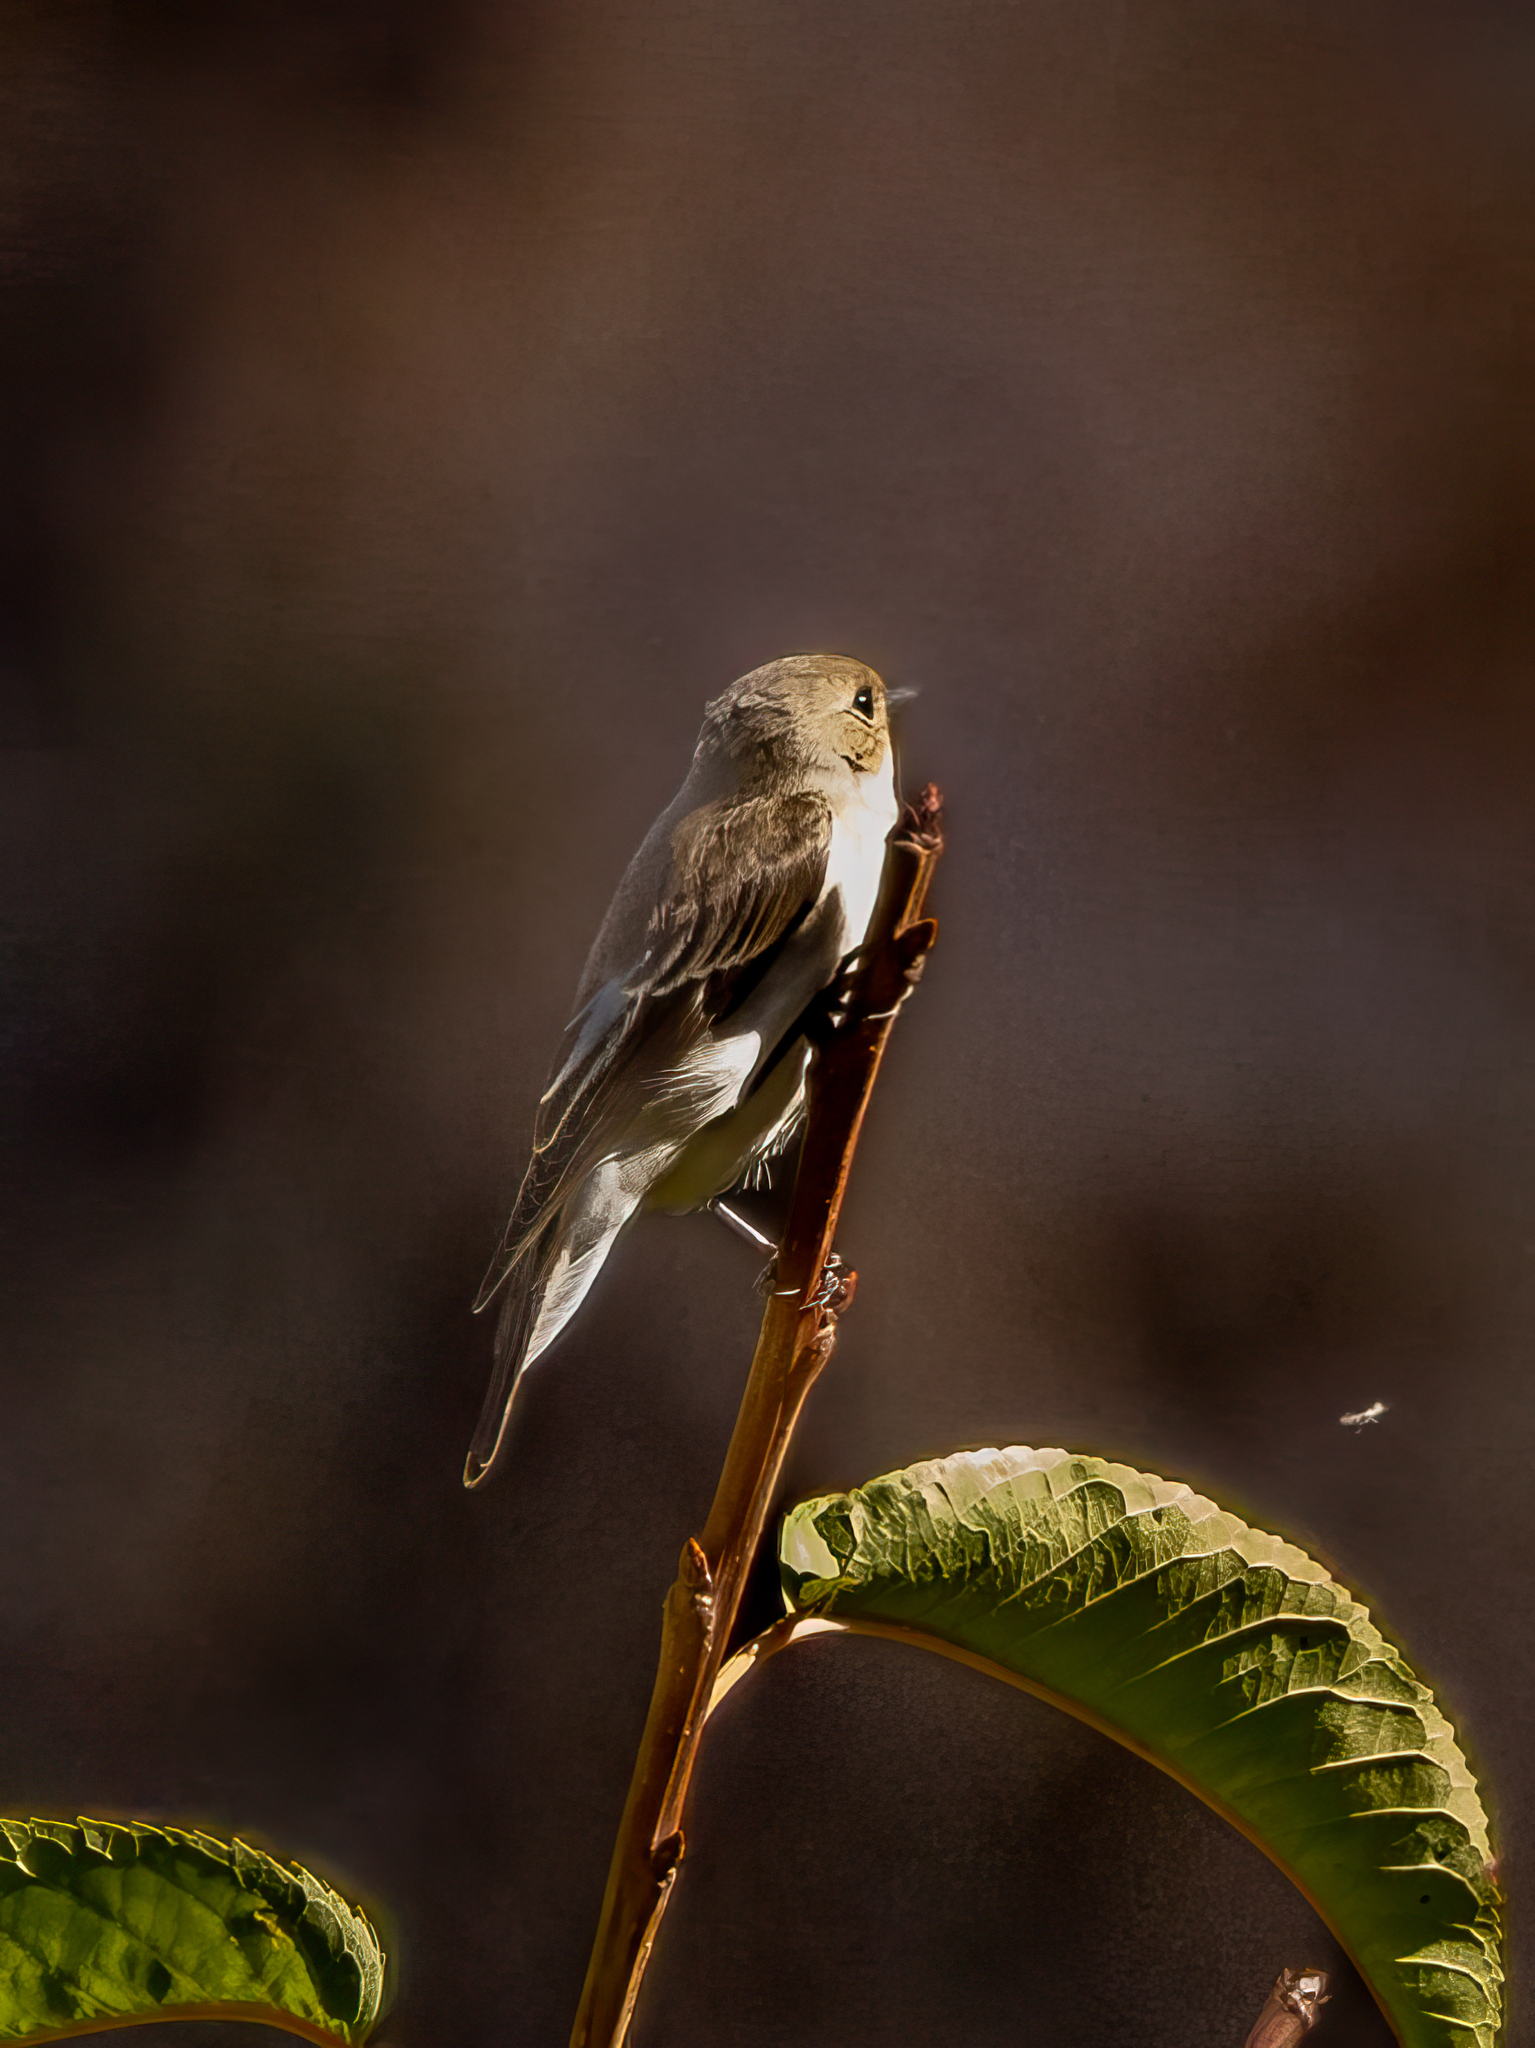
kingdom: Animalia
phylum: Chordata
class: Aves
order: Passeriformes
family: Muscicapidae
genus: Ficedula
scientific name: Ficedula hypoleuca
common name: European pied flycatcher
